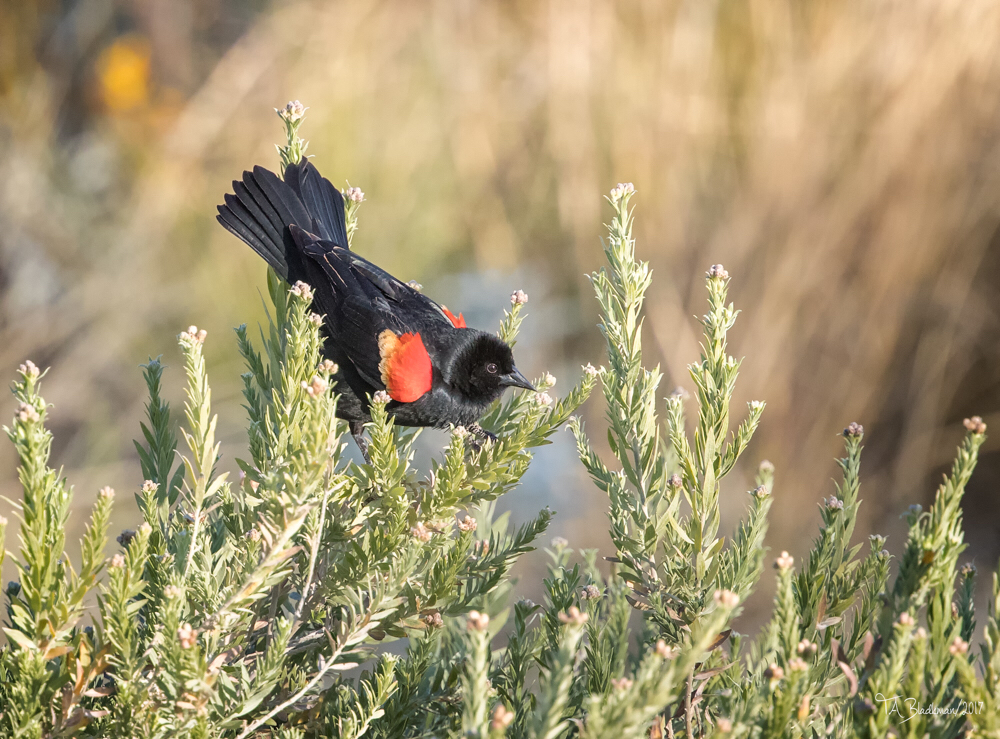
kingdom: Animalia
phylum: Chordata
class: Aves
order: Passeriformes
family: Icteridae
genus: Agelaius
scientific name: Agelaius phoeniceus
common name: Red-winged blackbird
